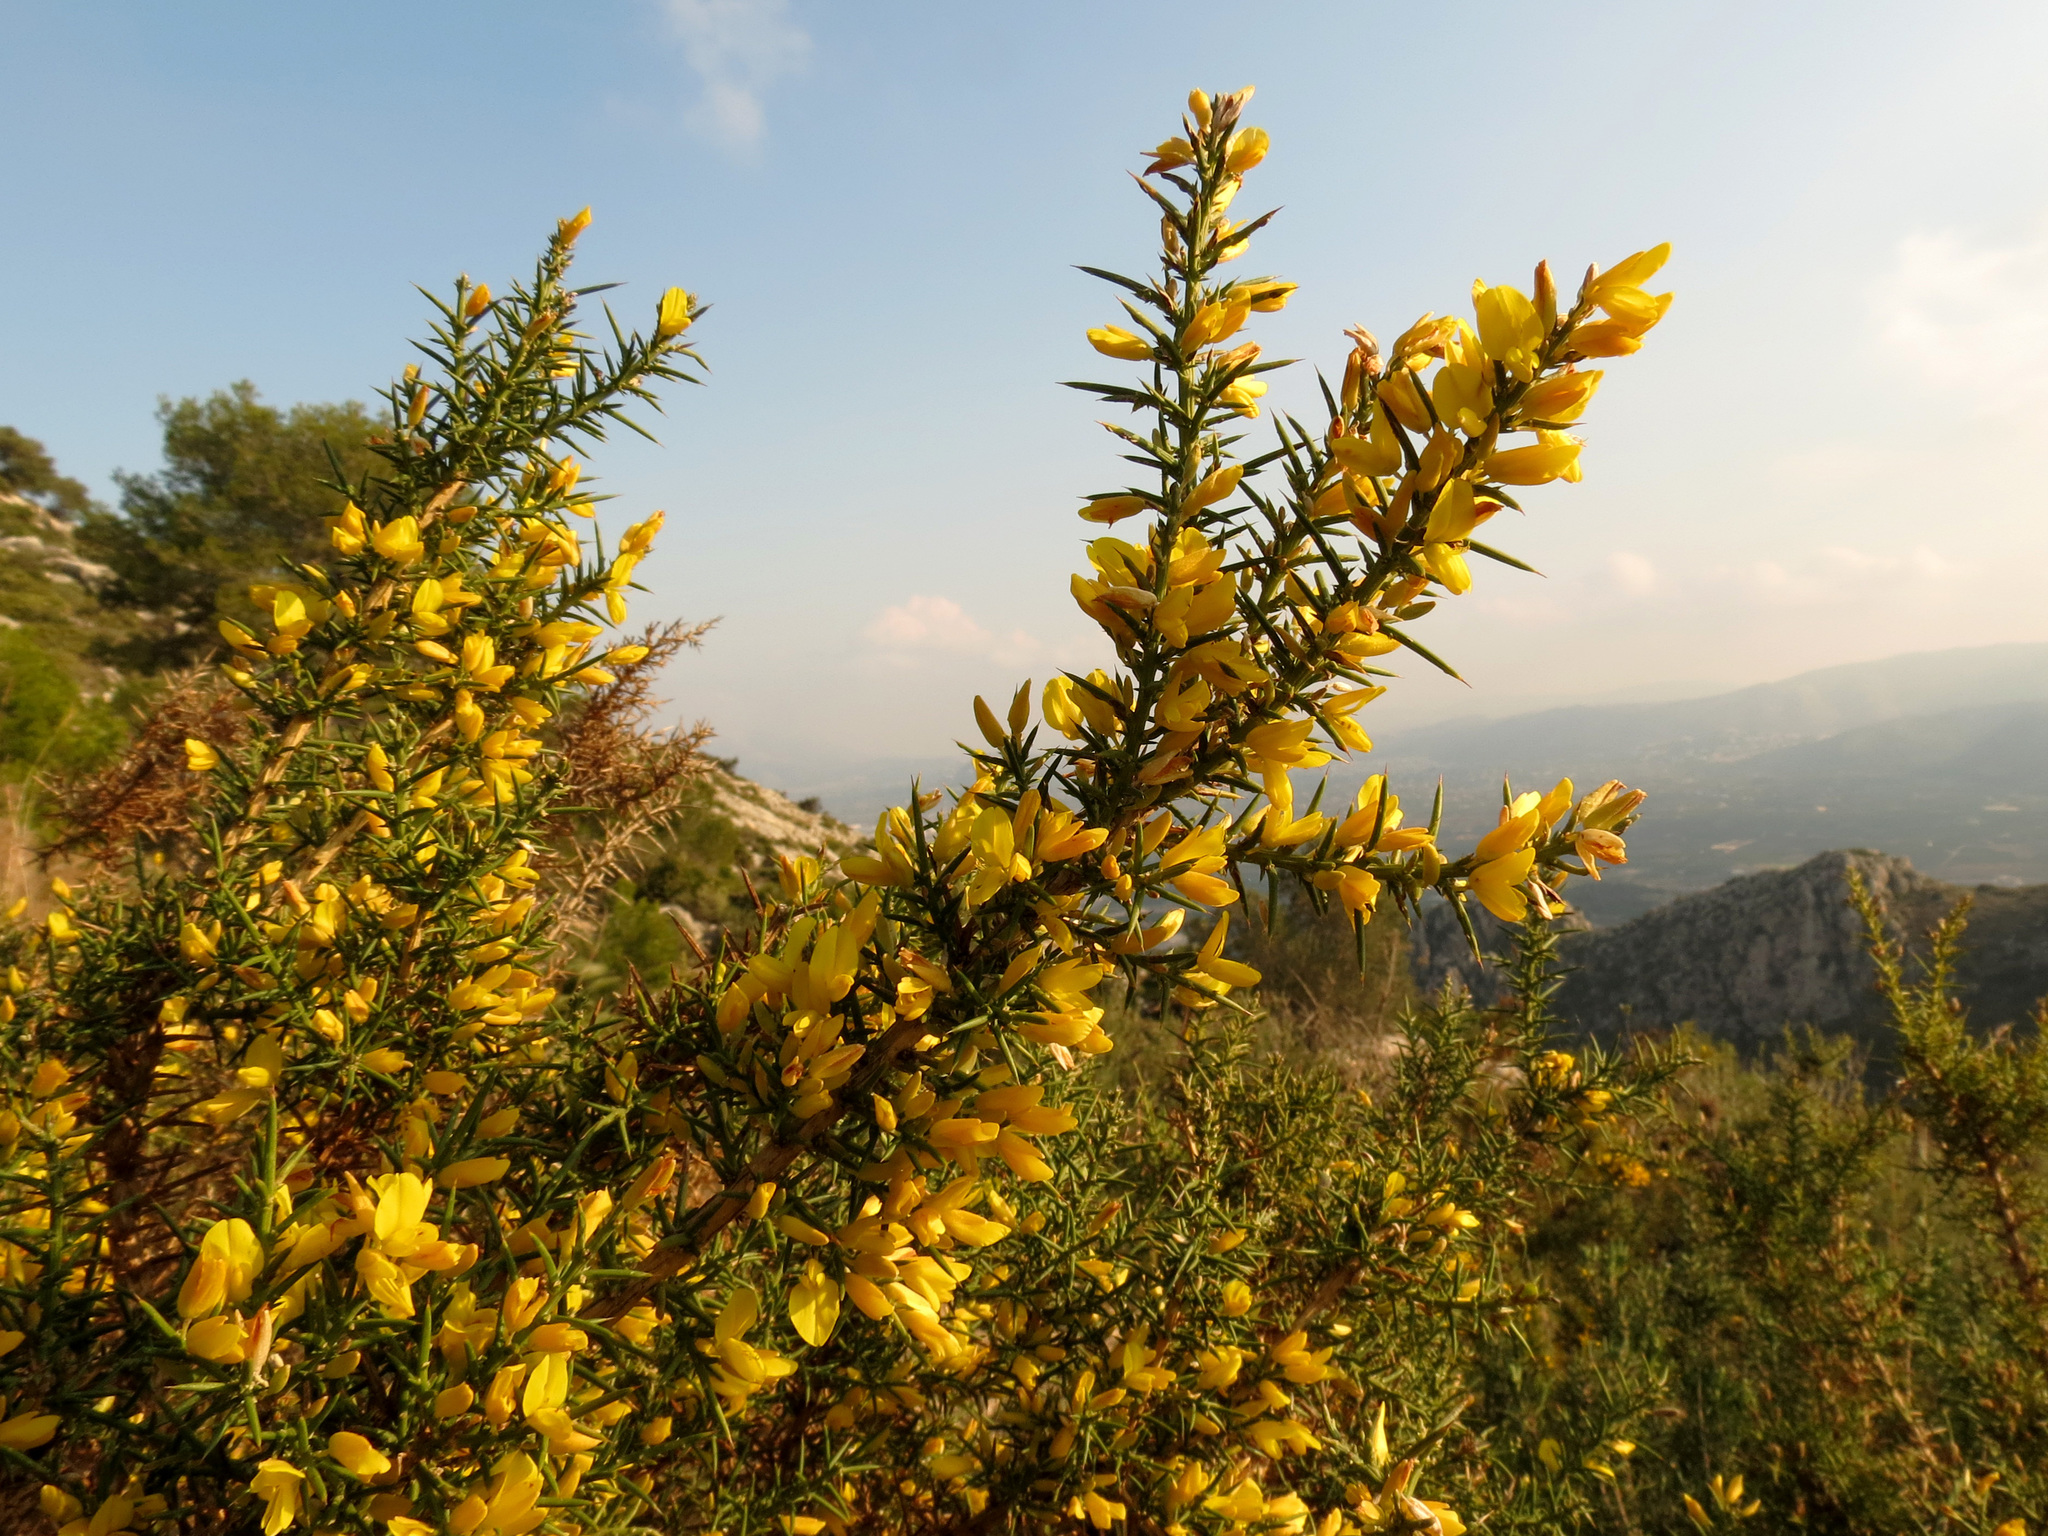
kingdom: Plantae
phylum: Tracheophyta
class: Magnoliopsida
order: Fabales
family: Fabaceae
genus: Ulex
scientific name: Ulex parviflorus
